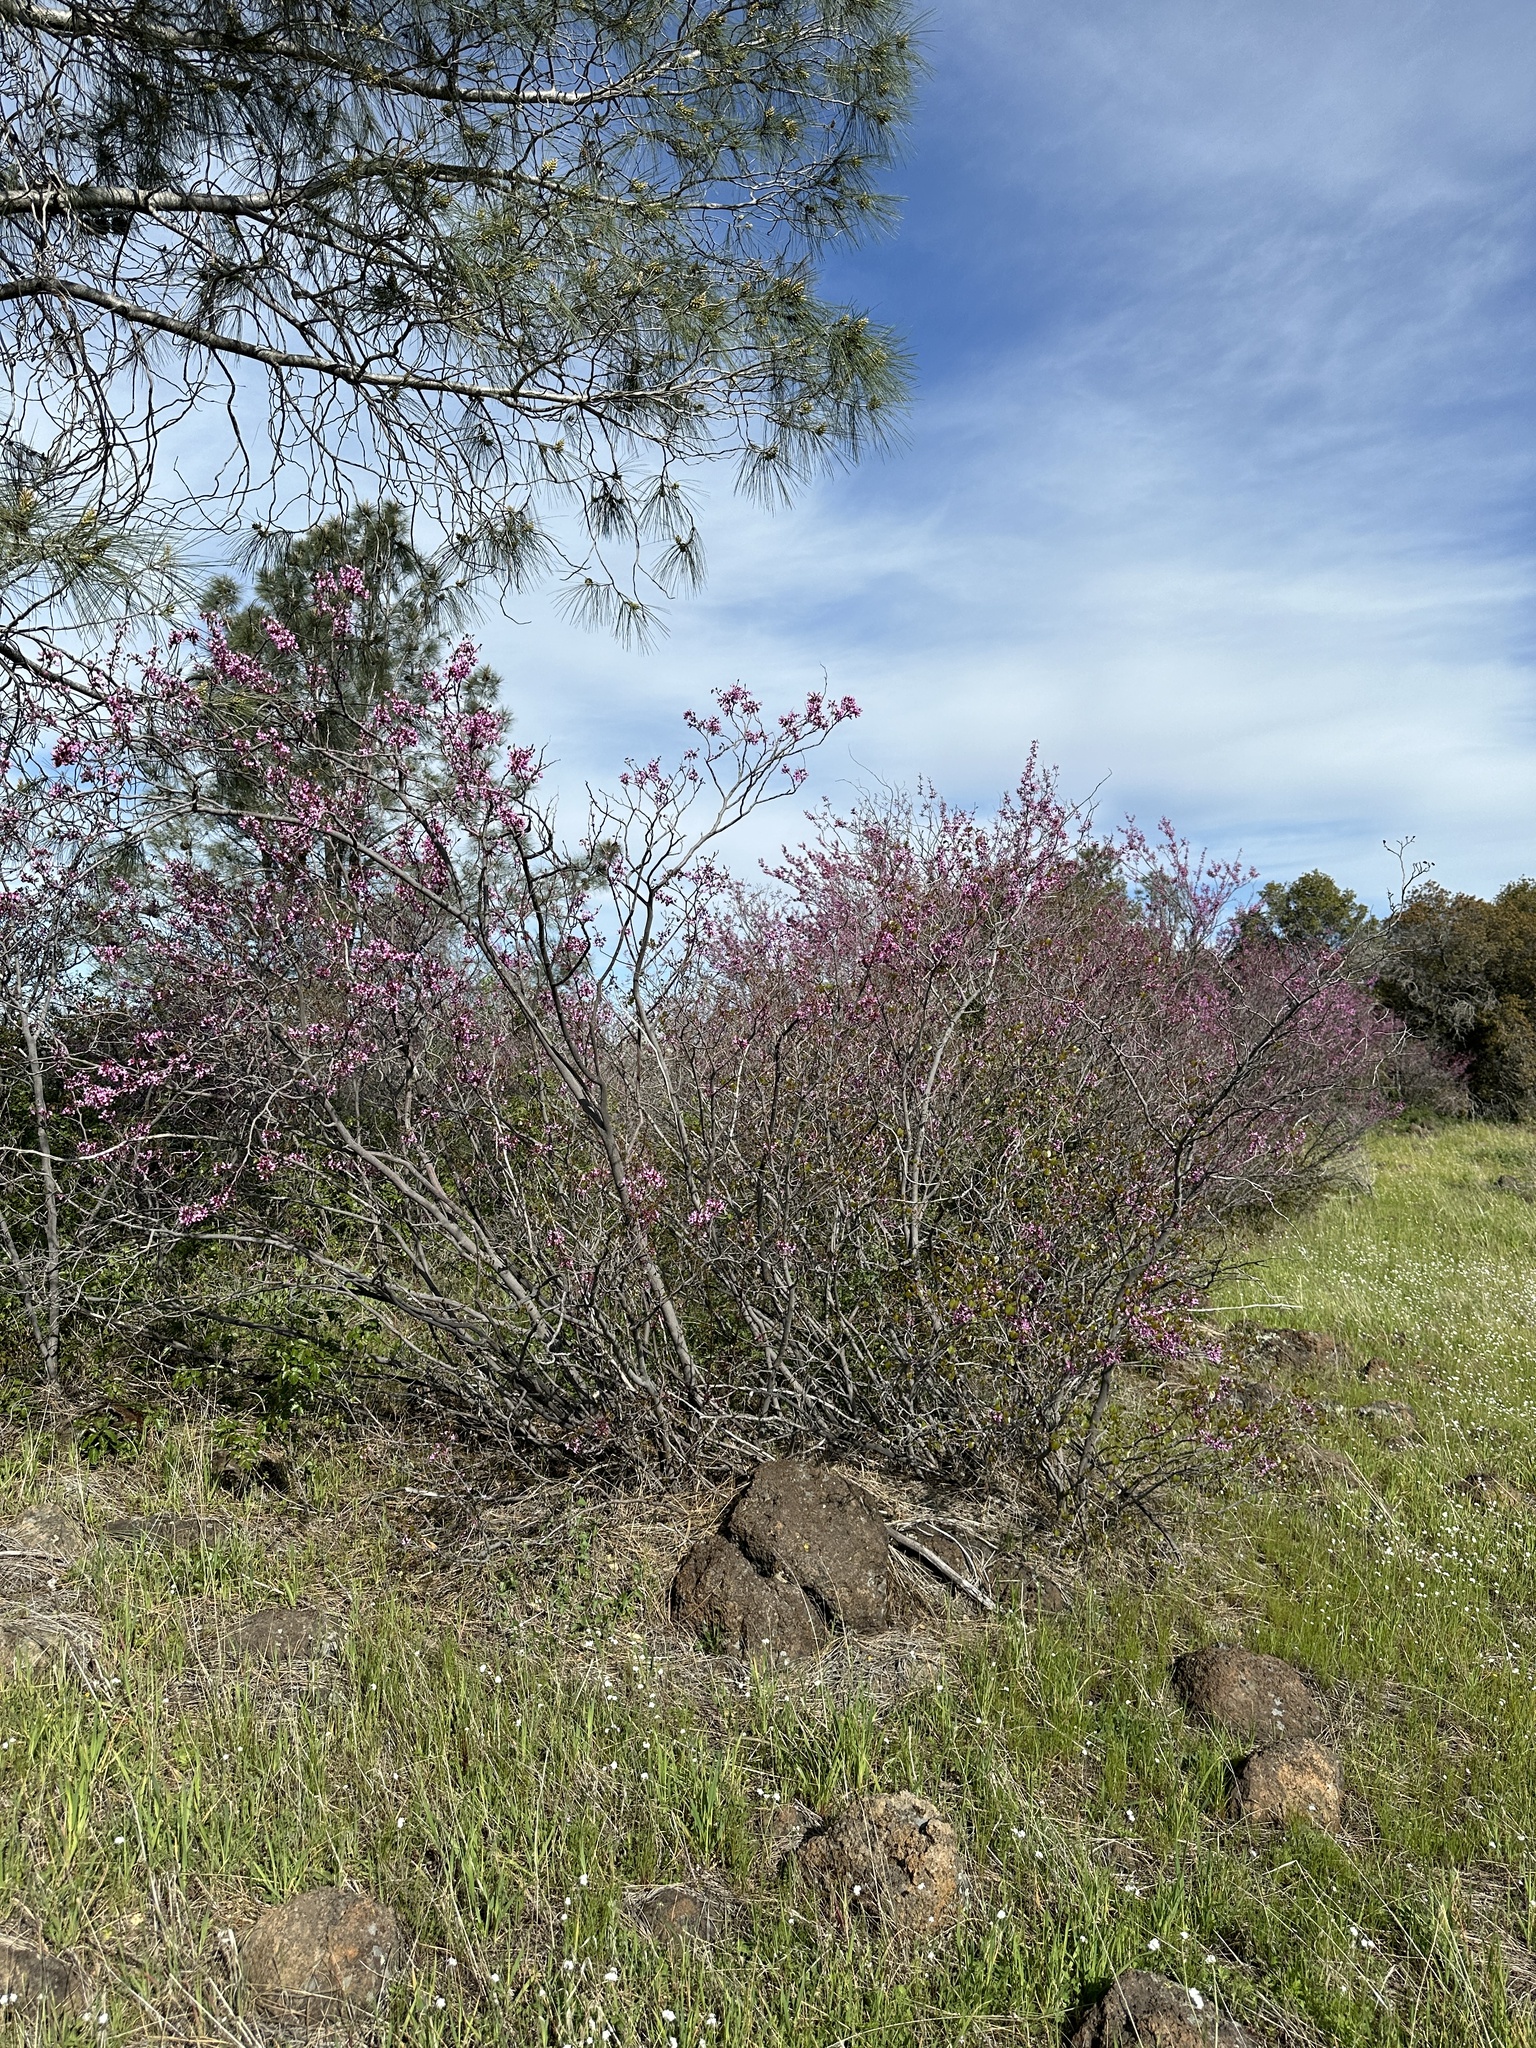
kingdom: Plantae
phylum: Tracheophyta
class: Magnoliopsida
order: Fabales
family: Fabaceae
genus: Cercis
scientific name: Cercis occidentalis
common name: California redbud
